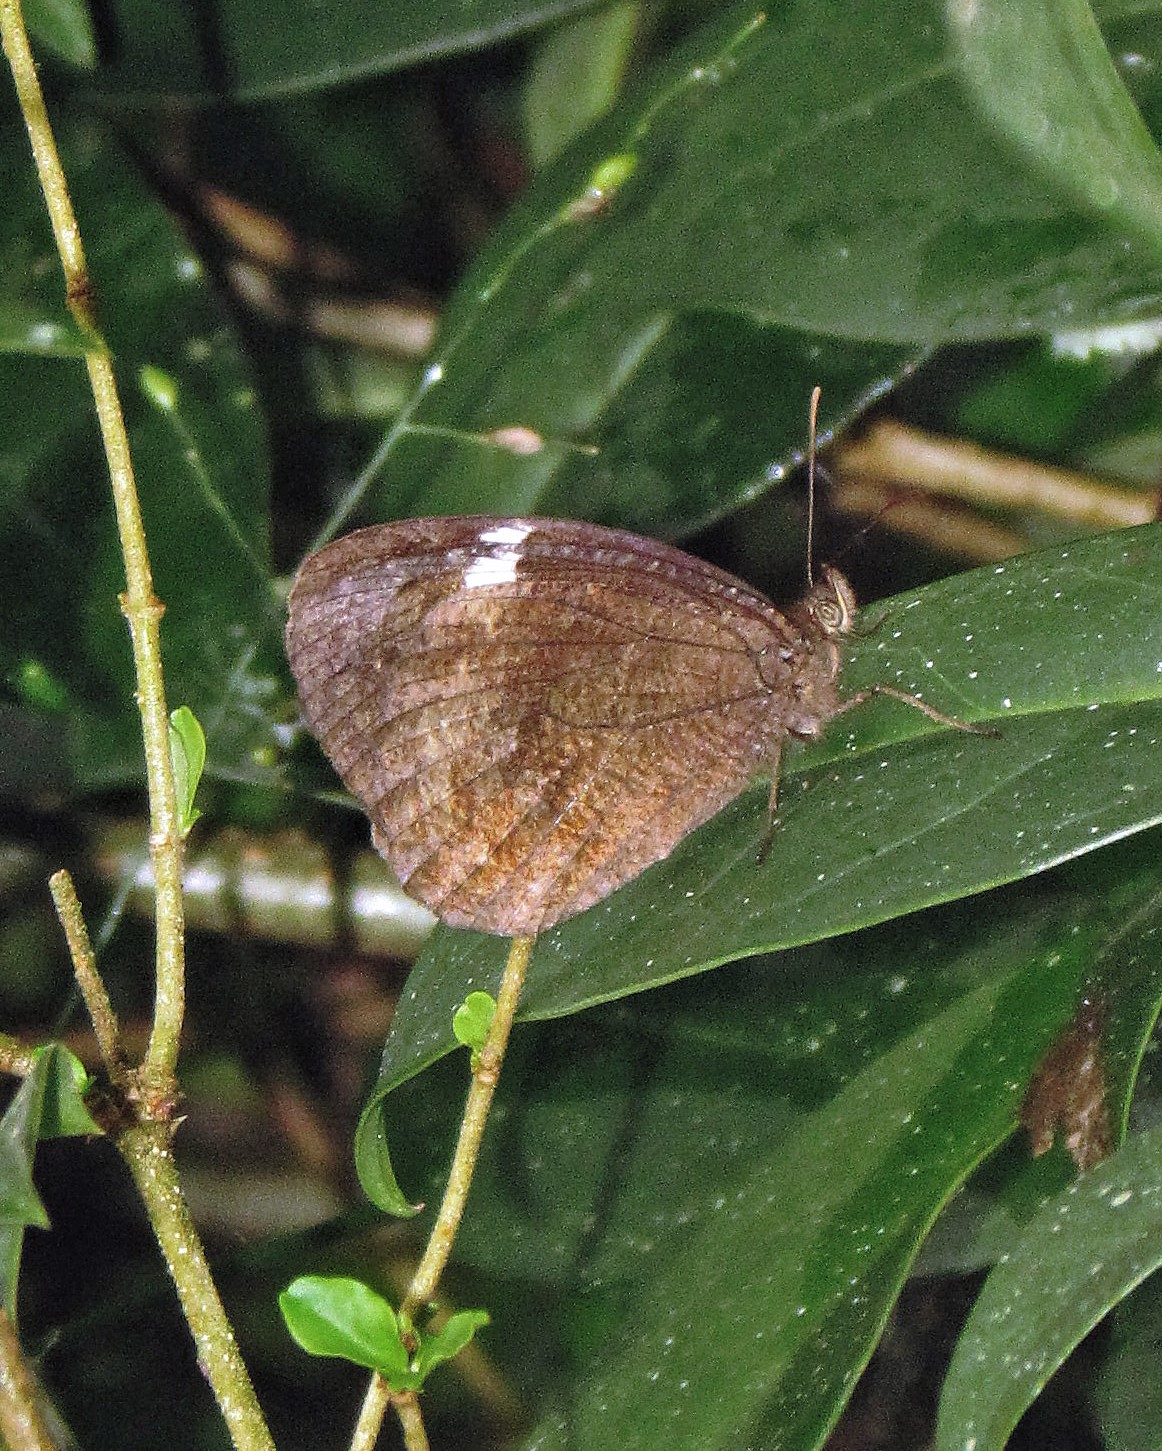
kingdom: Animalia
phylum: Arthropoda
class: Insecta
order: Lepidoptera
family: Nymphalidae
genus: Pedaliodes
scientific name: Pedaliodes porina
